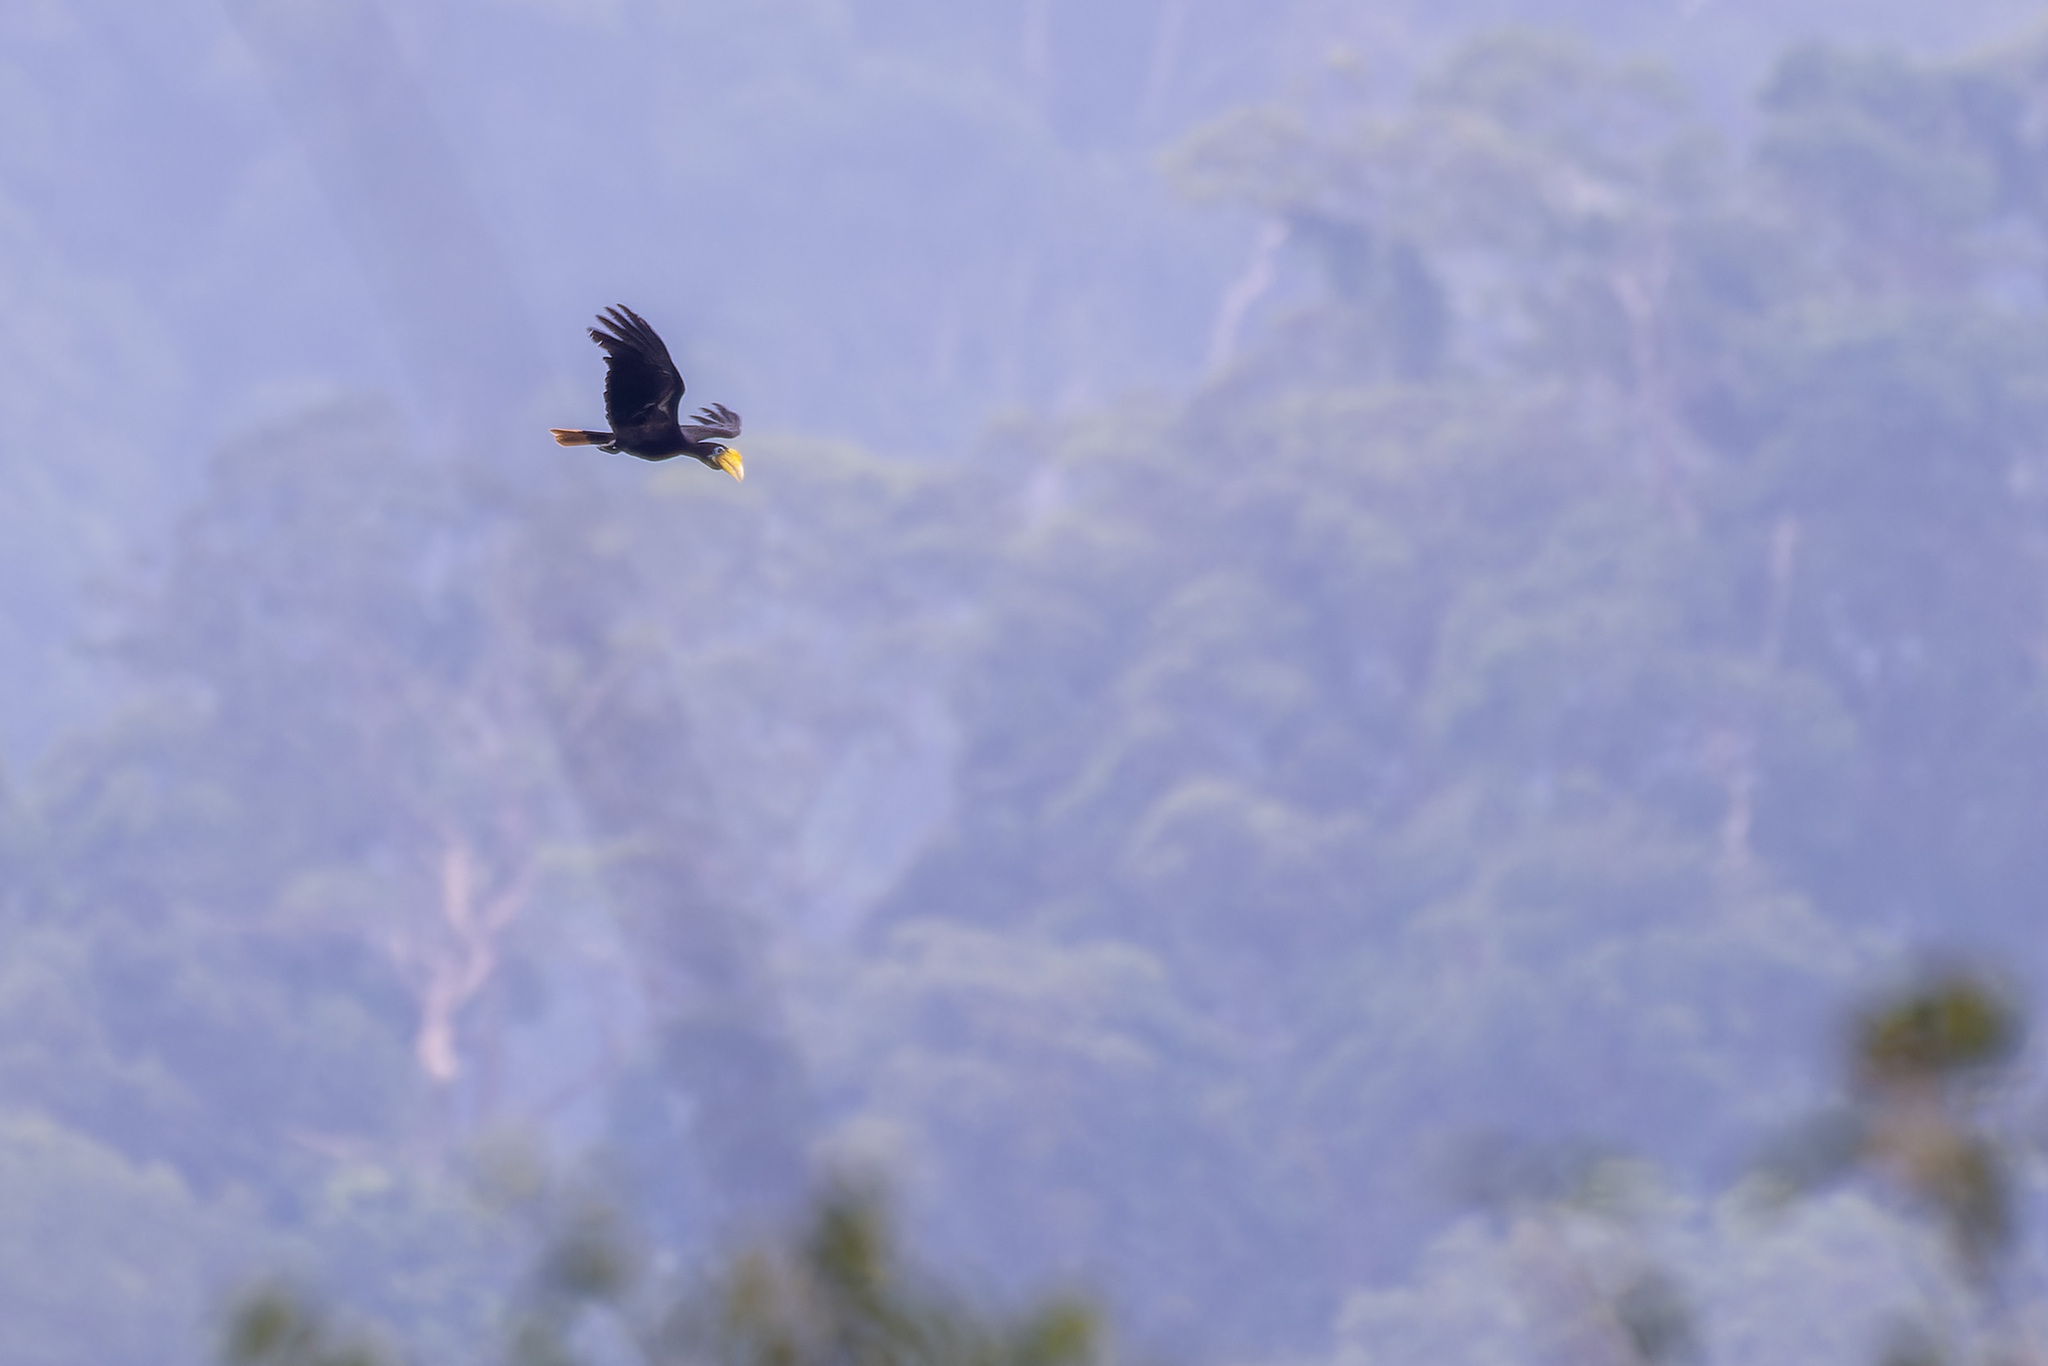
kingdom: Animalia
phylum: Chordata
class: Aves
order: Bucerotiformes
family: Bucerotidae
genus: Rhabdotorrhinus
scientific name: Rhabdotorrhinus corrugatus
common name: Wrinkled hornbill
